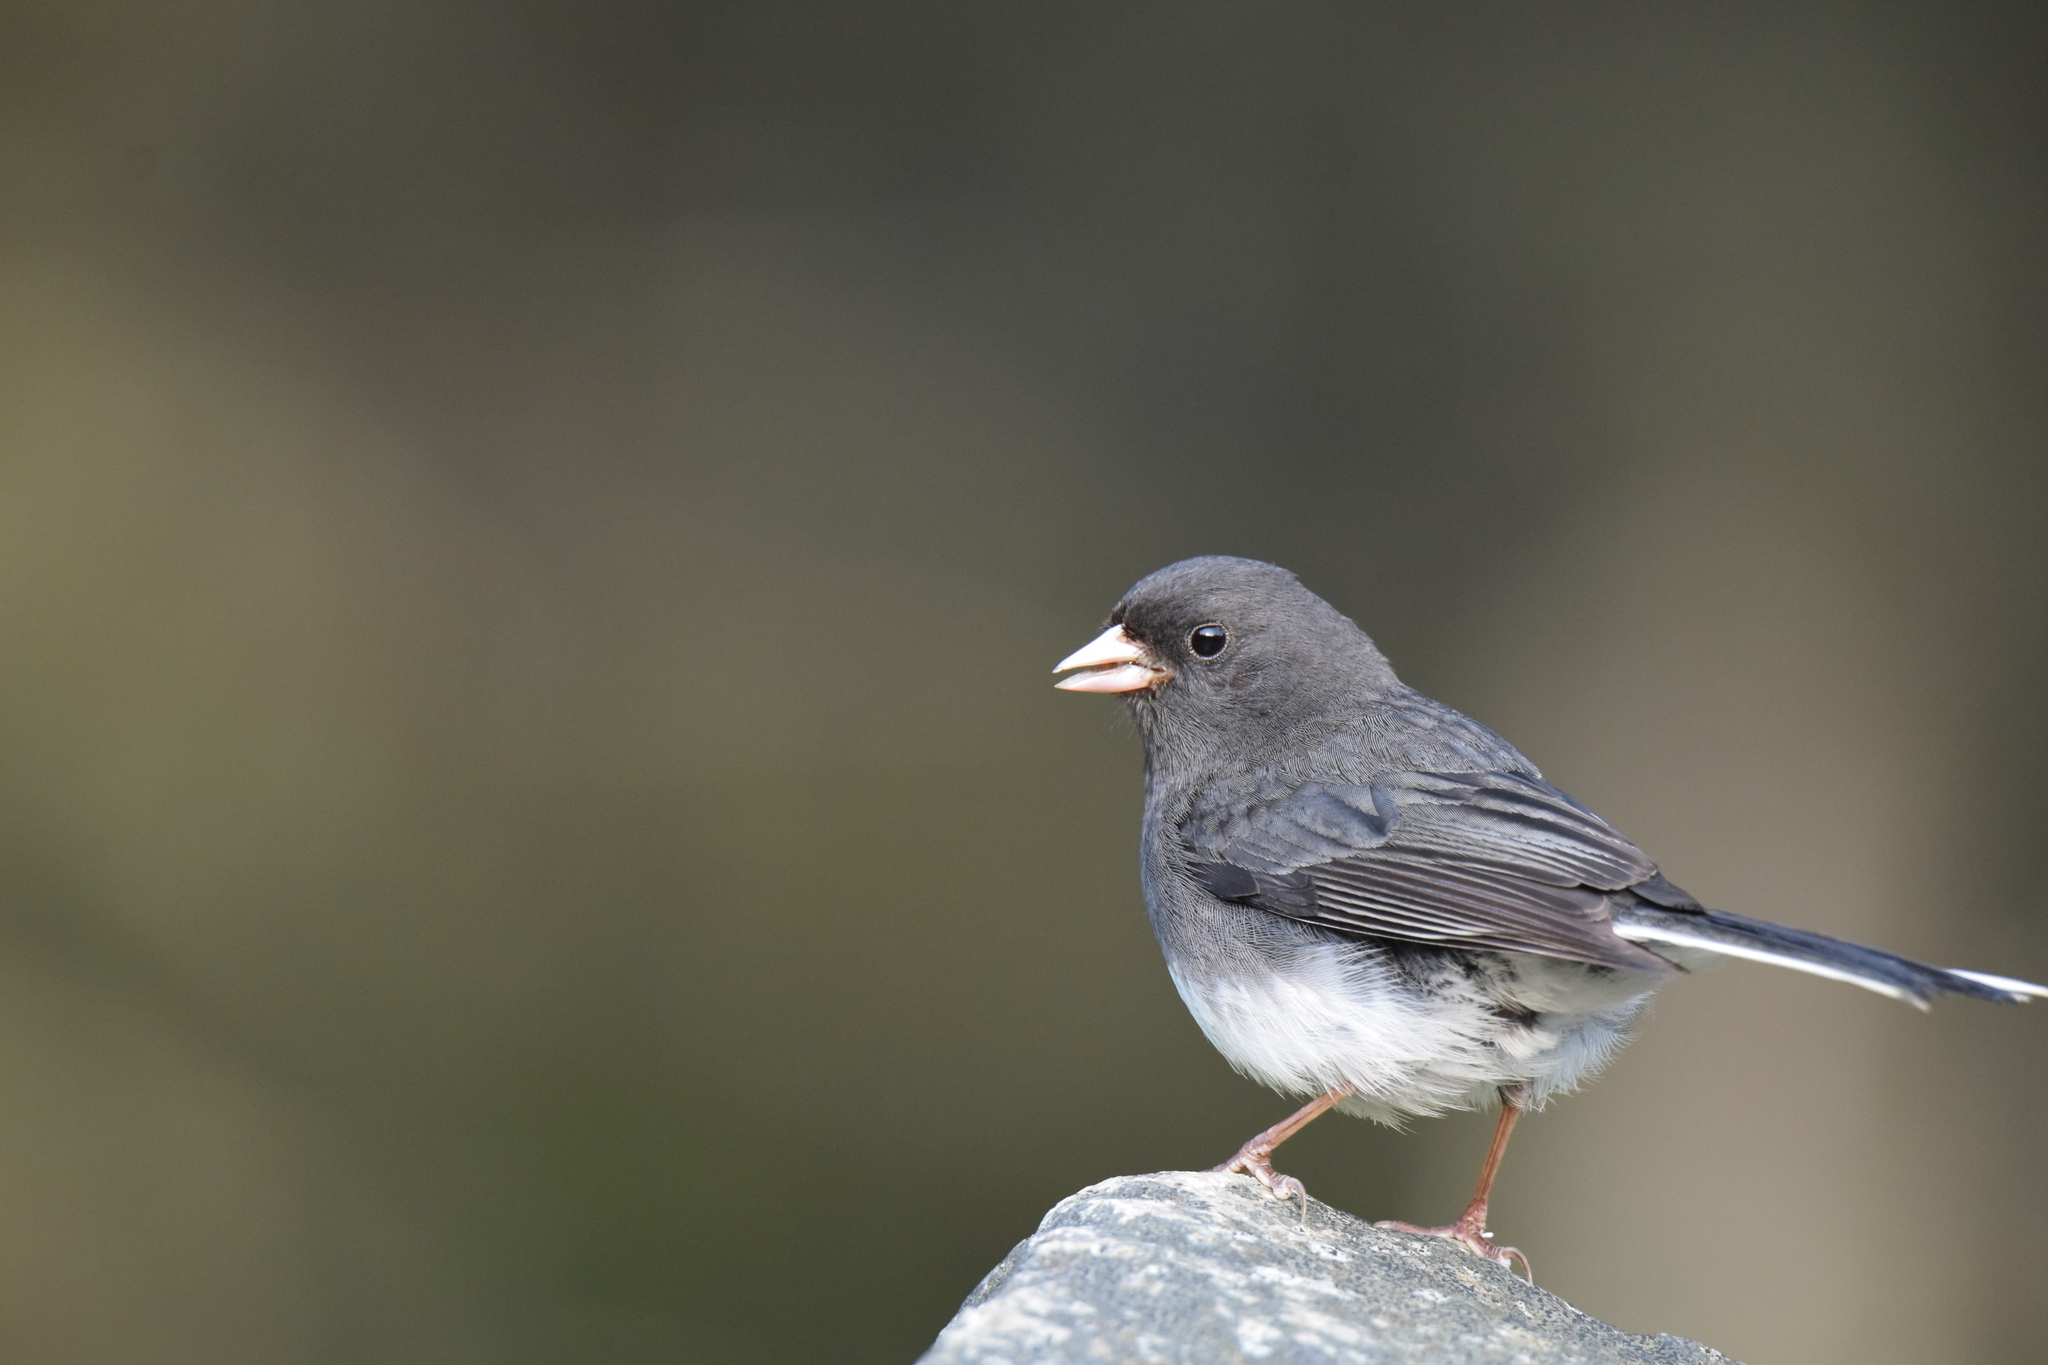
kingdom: Animalia
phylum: Chordata
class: Aves
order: Passeriformes
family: Passerellidae
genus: Junco
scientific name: Junco hyemalis
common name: Dark-eyed junco
